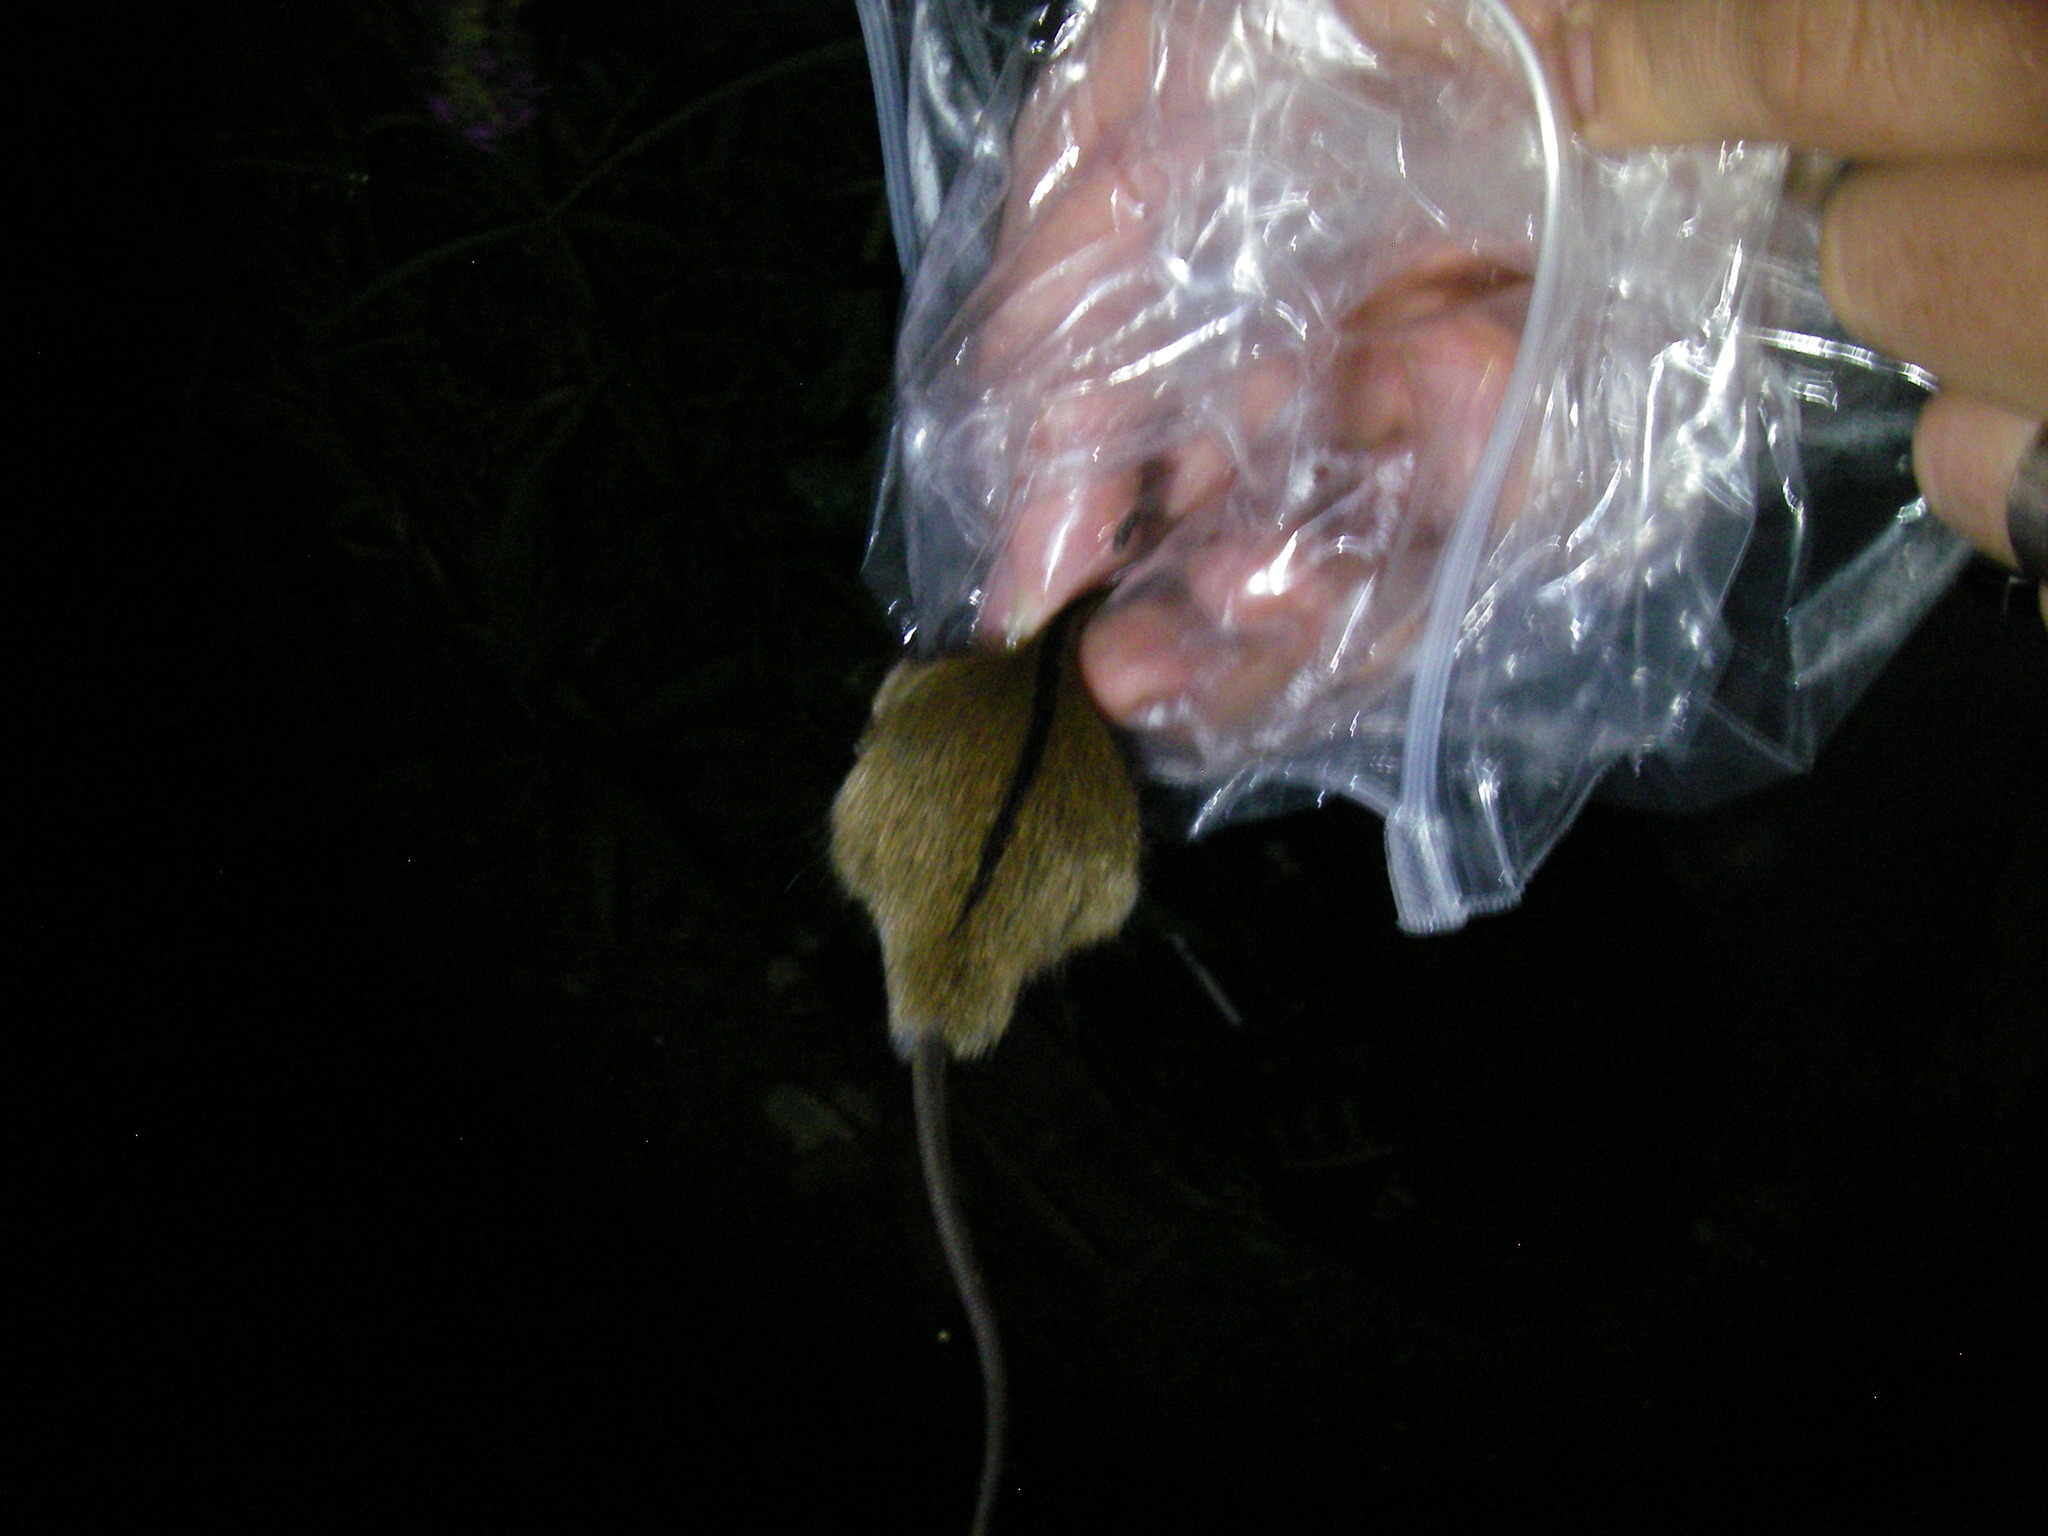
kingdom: Animalia
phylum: Chordata
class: Mammalia
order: Rodentia
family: Muridae
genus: Apodemus
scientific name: Apodemus agrarius
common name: Striped field mouse
